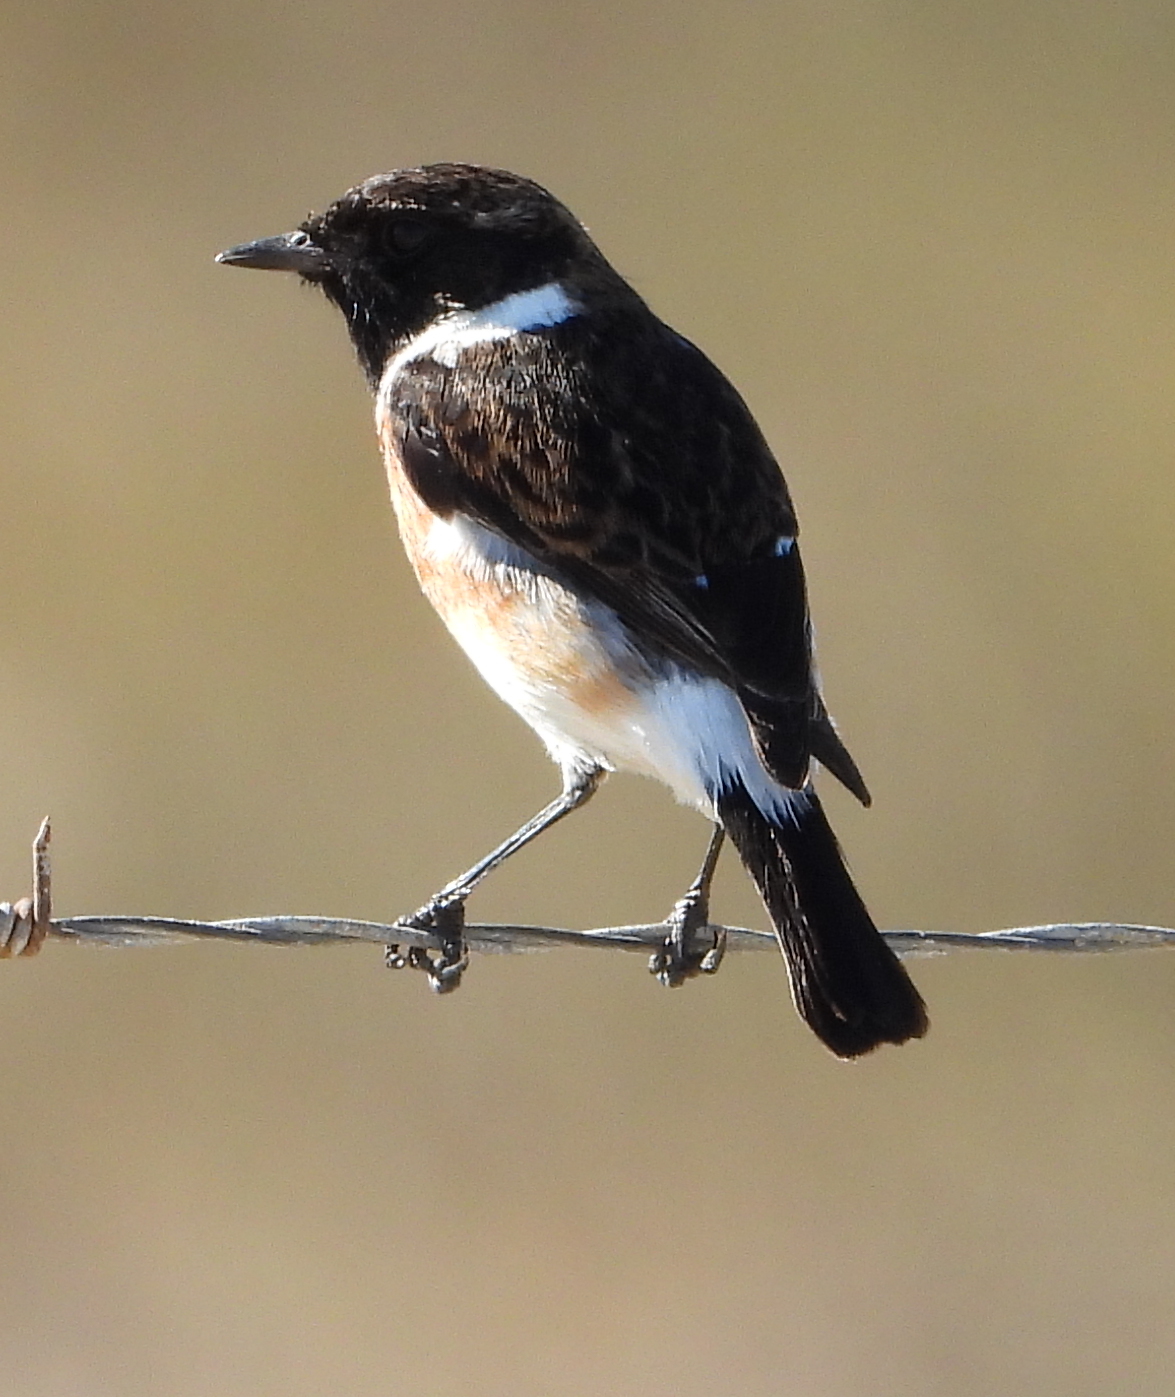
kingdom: Animalia
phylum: Chordata
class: Aves
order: Passeriformes
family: Muscicapidae
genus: Saxicola
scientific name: Saxicola torquatus
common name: African stonechat
